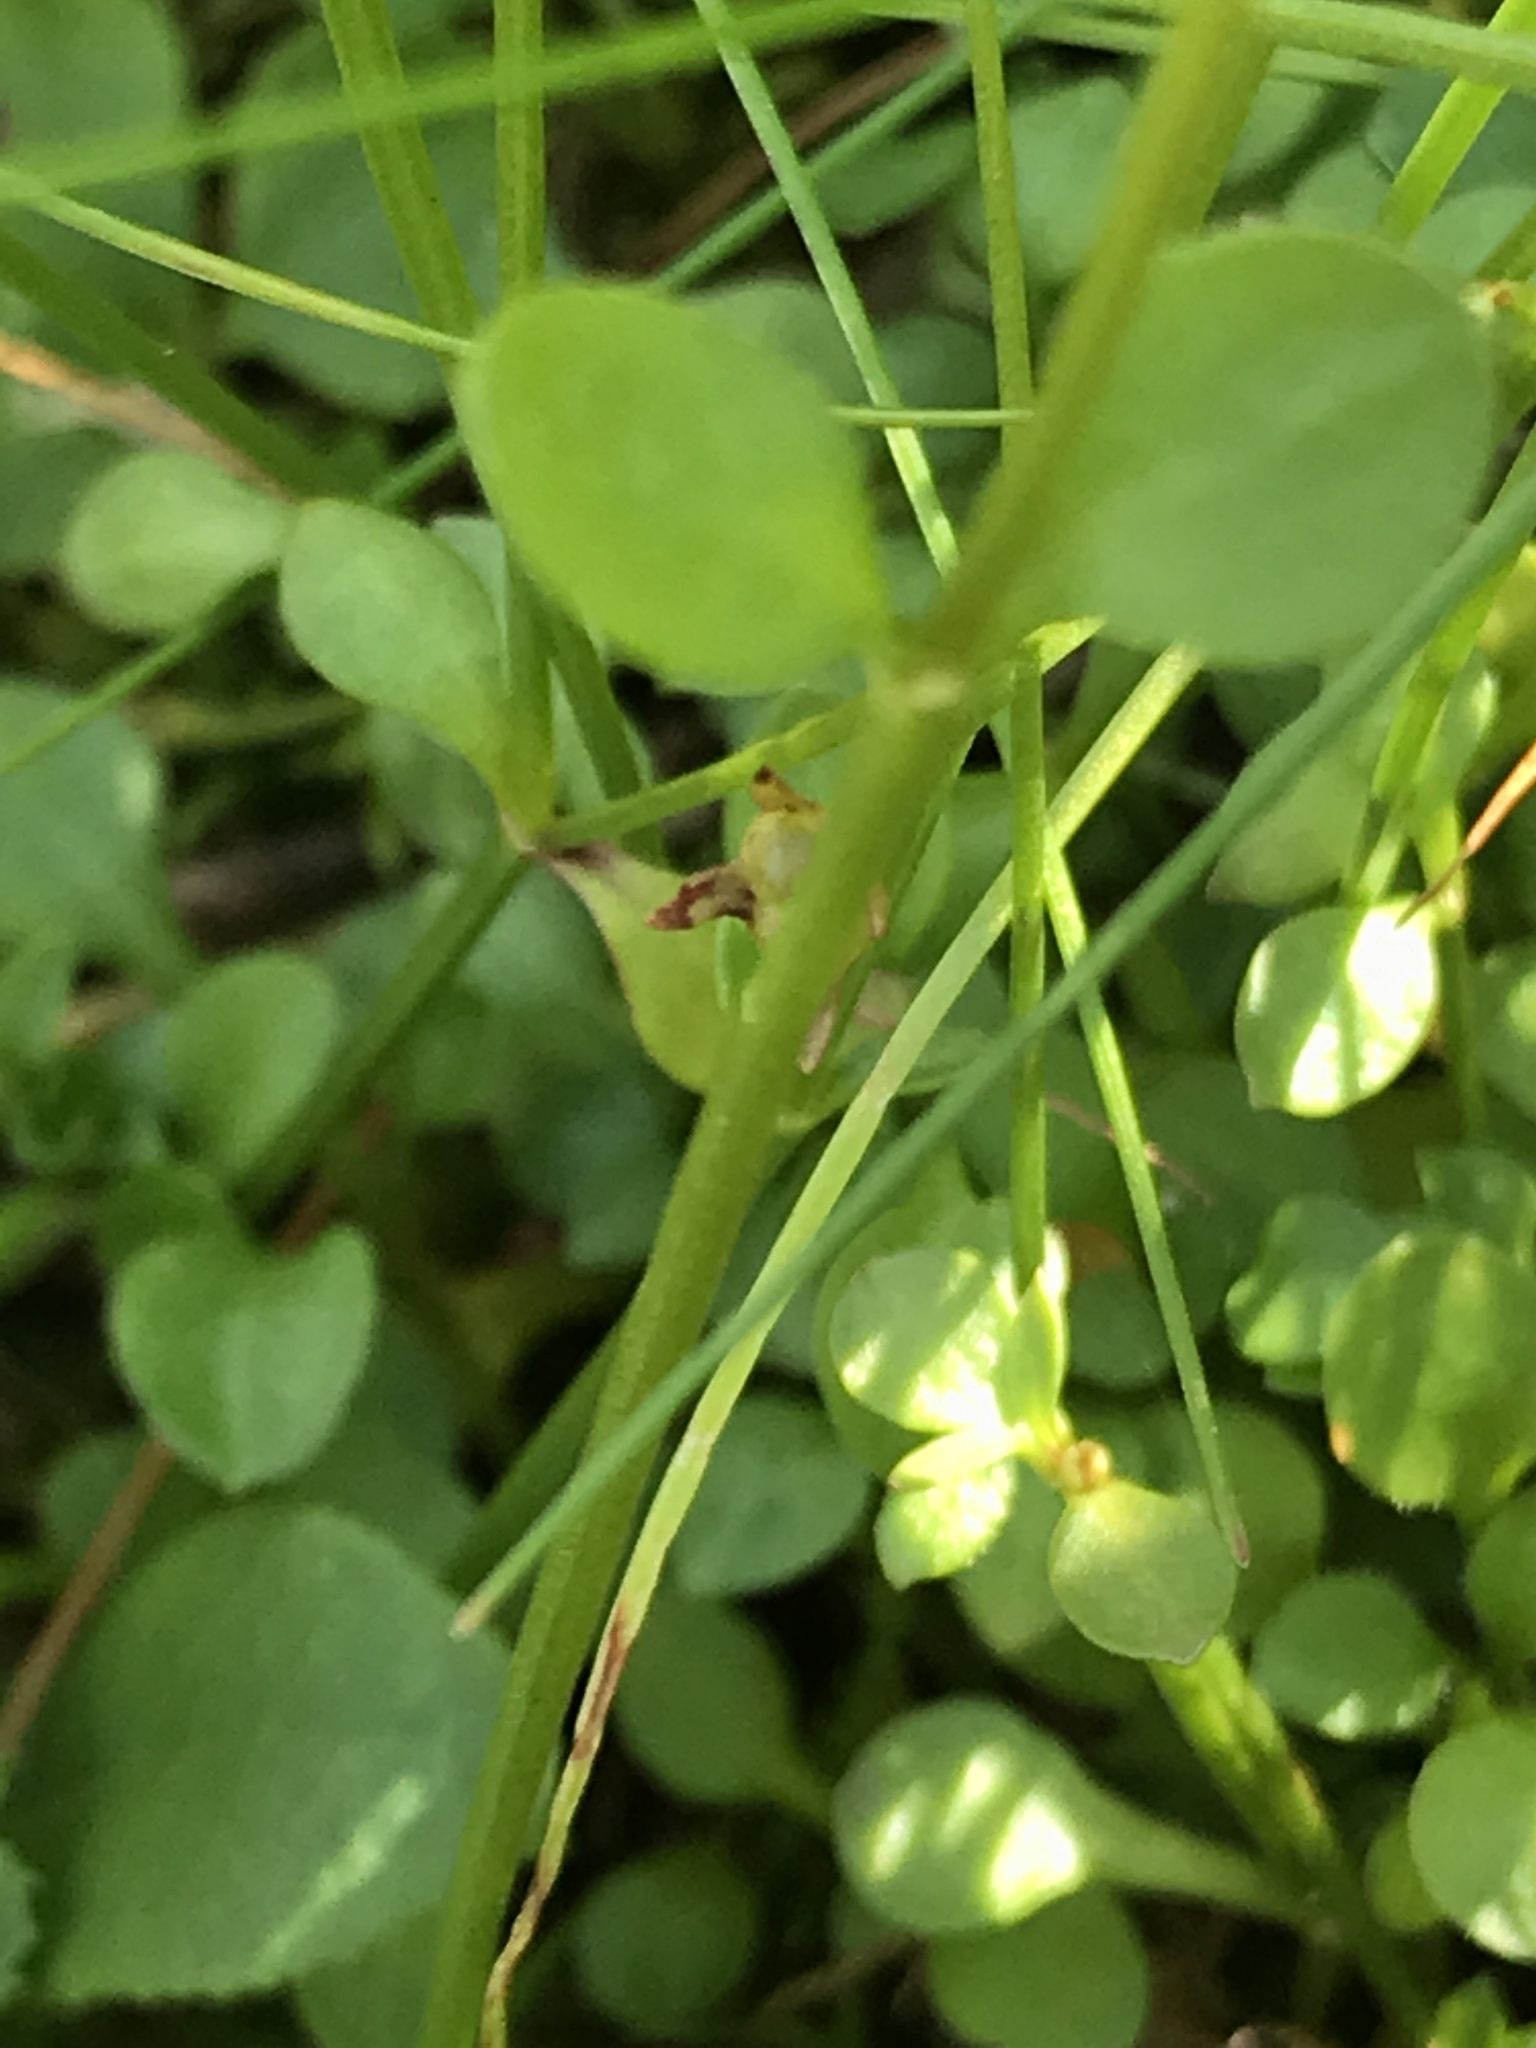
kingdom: Plantae
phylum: Tracheophyta
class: Magnoliopsida
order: Gentianales
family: Rubiaceae
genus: Houstonia
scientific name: Houstonia caerulea
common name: Bluets
